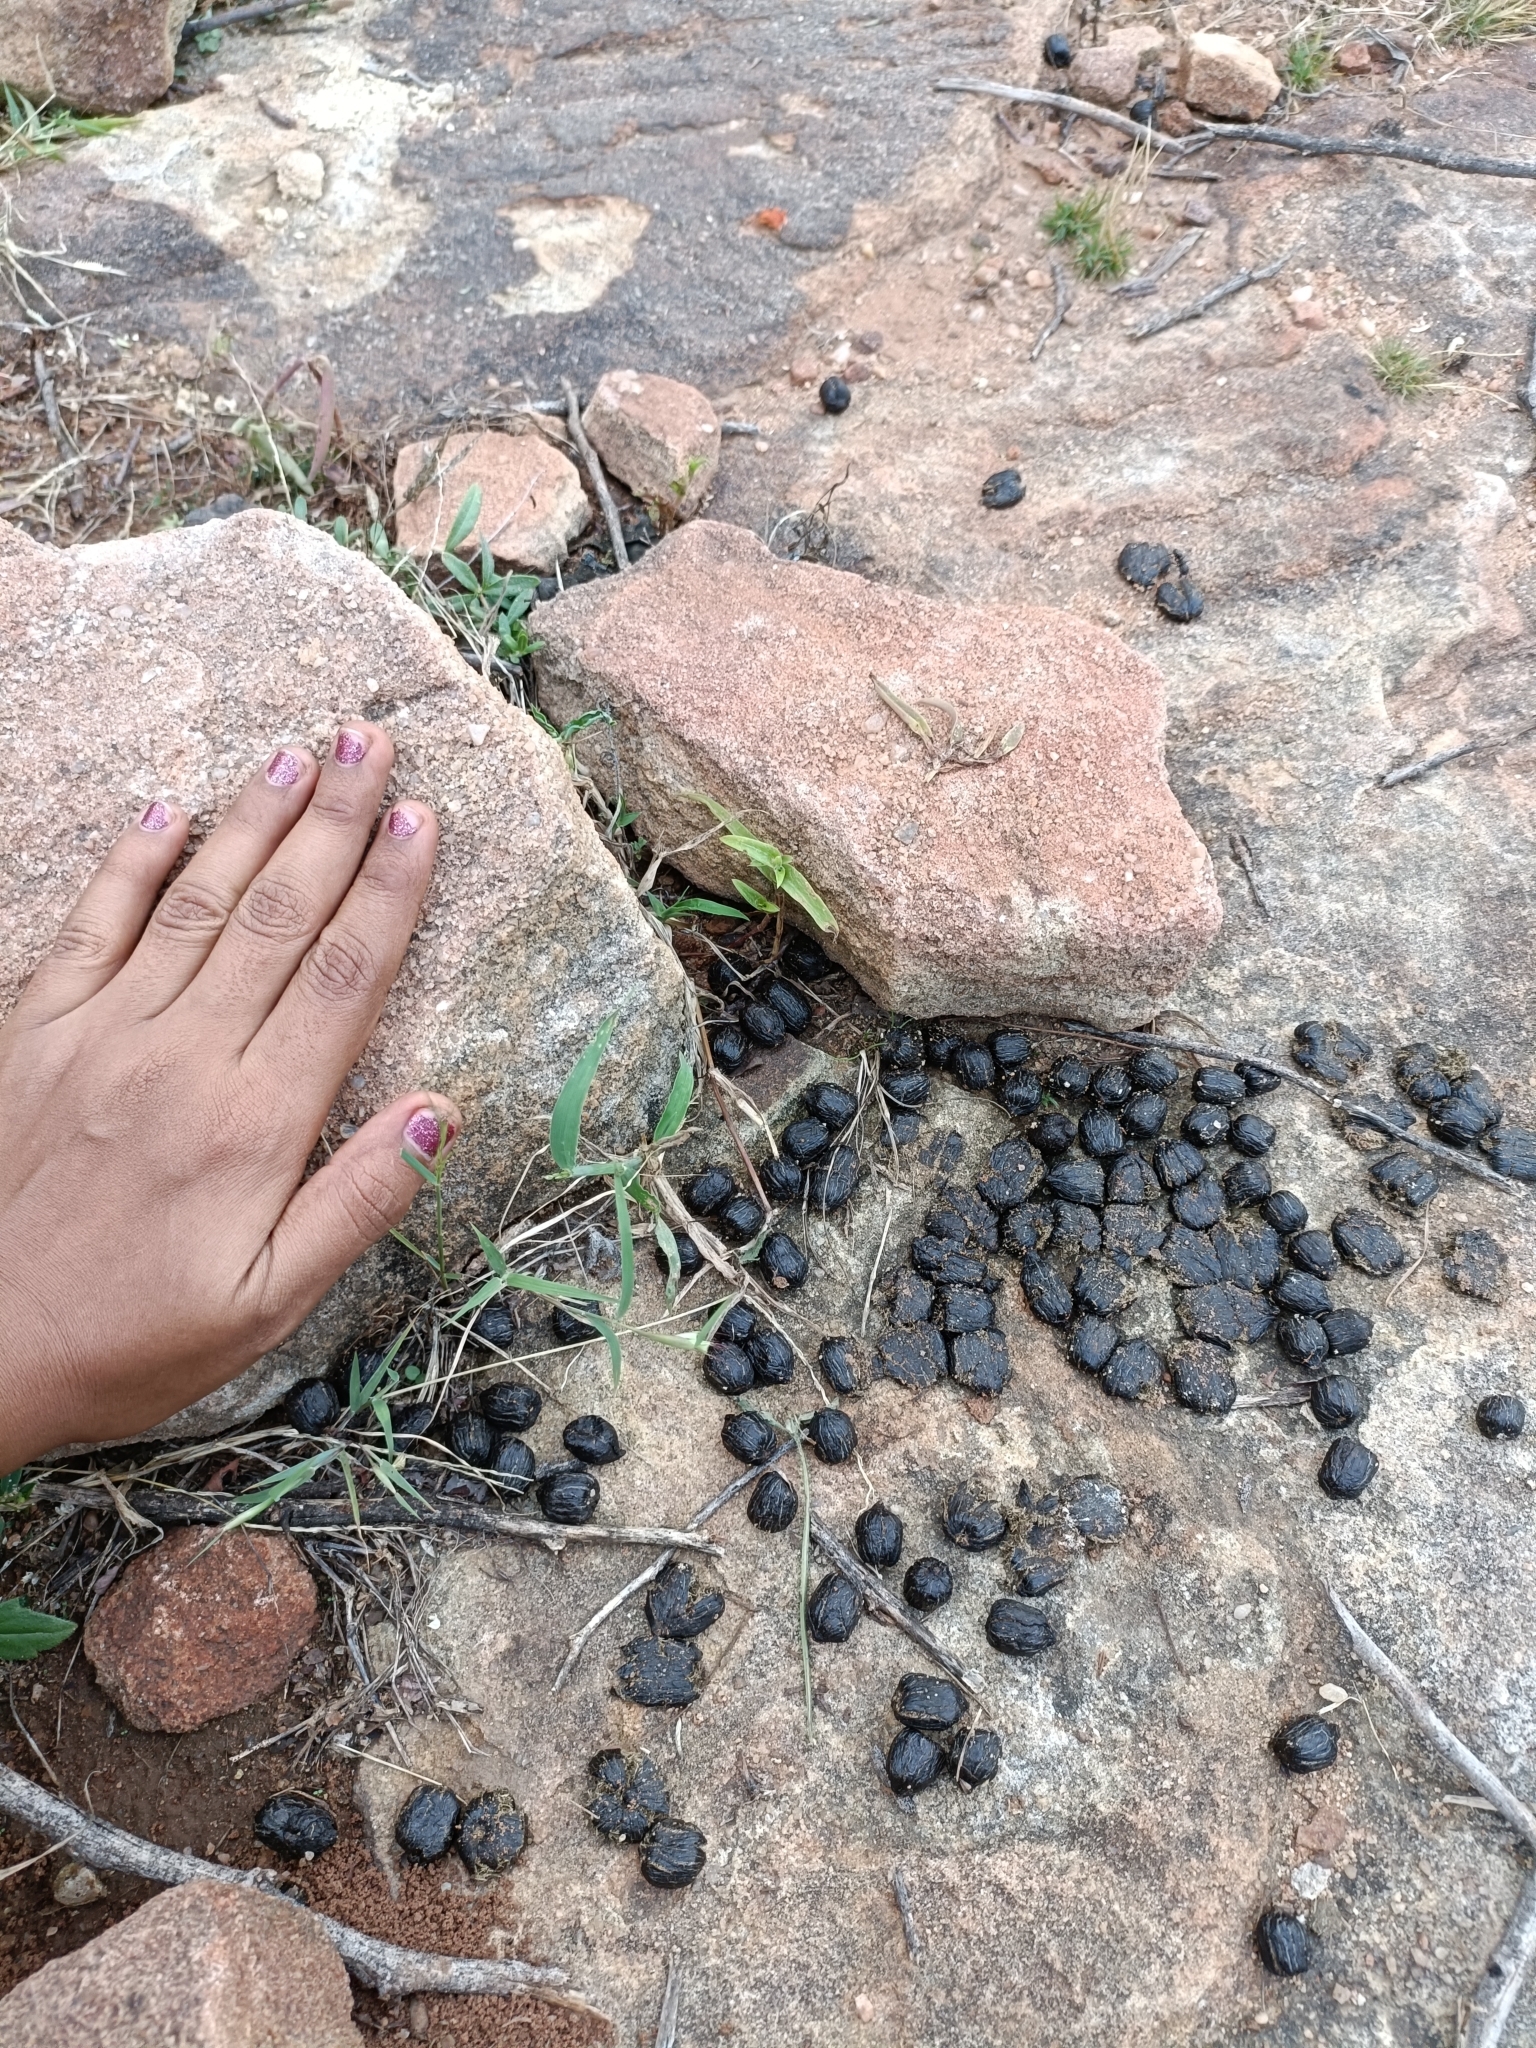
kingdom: Animalia
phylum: Chordata
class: Mammalia
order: Artiodactyla
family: Bovidae
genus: Boselaphus
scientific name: Boselaphus tragocamelus
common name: Nilgai
